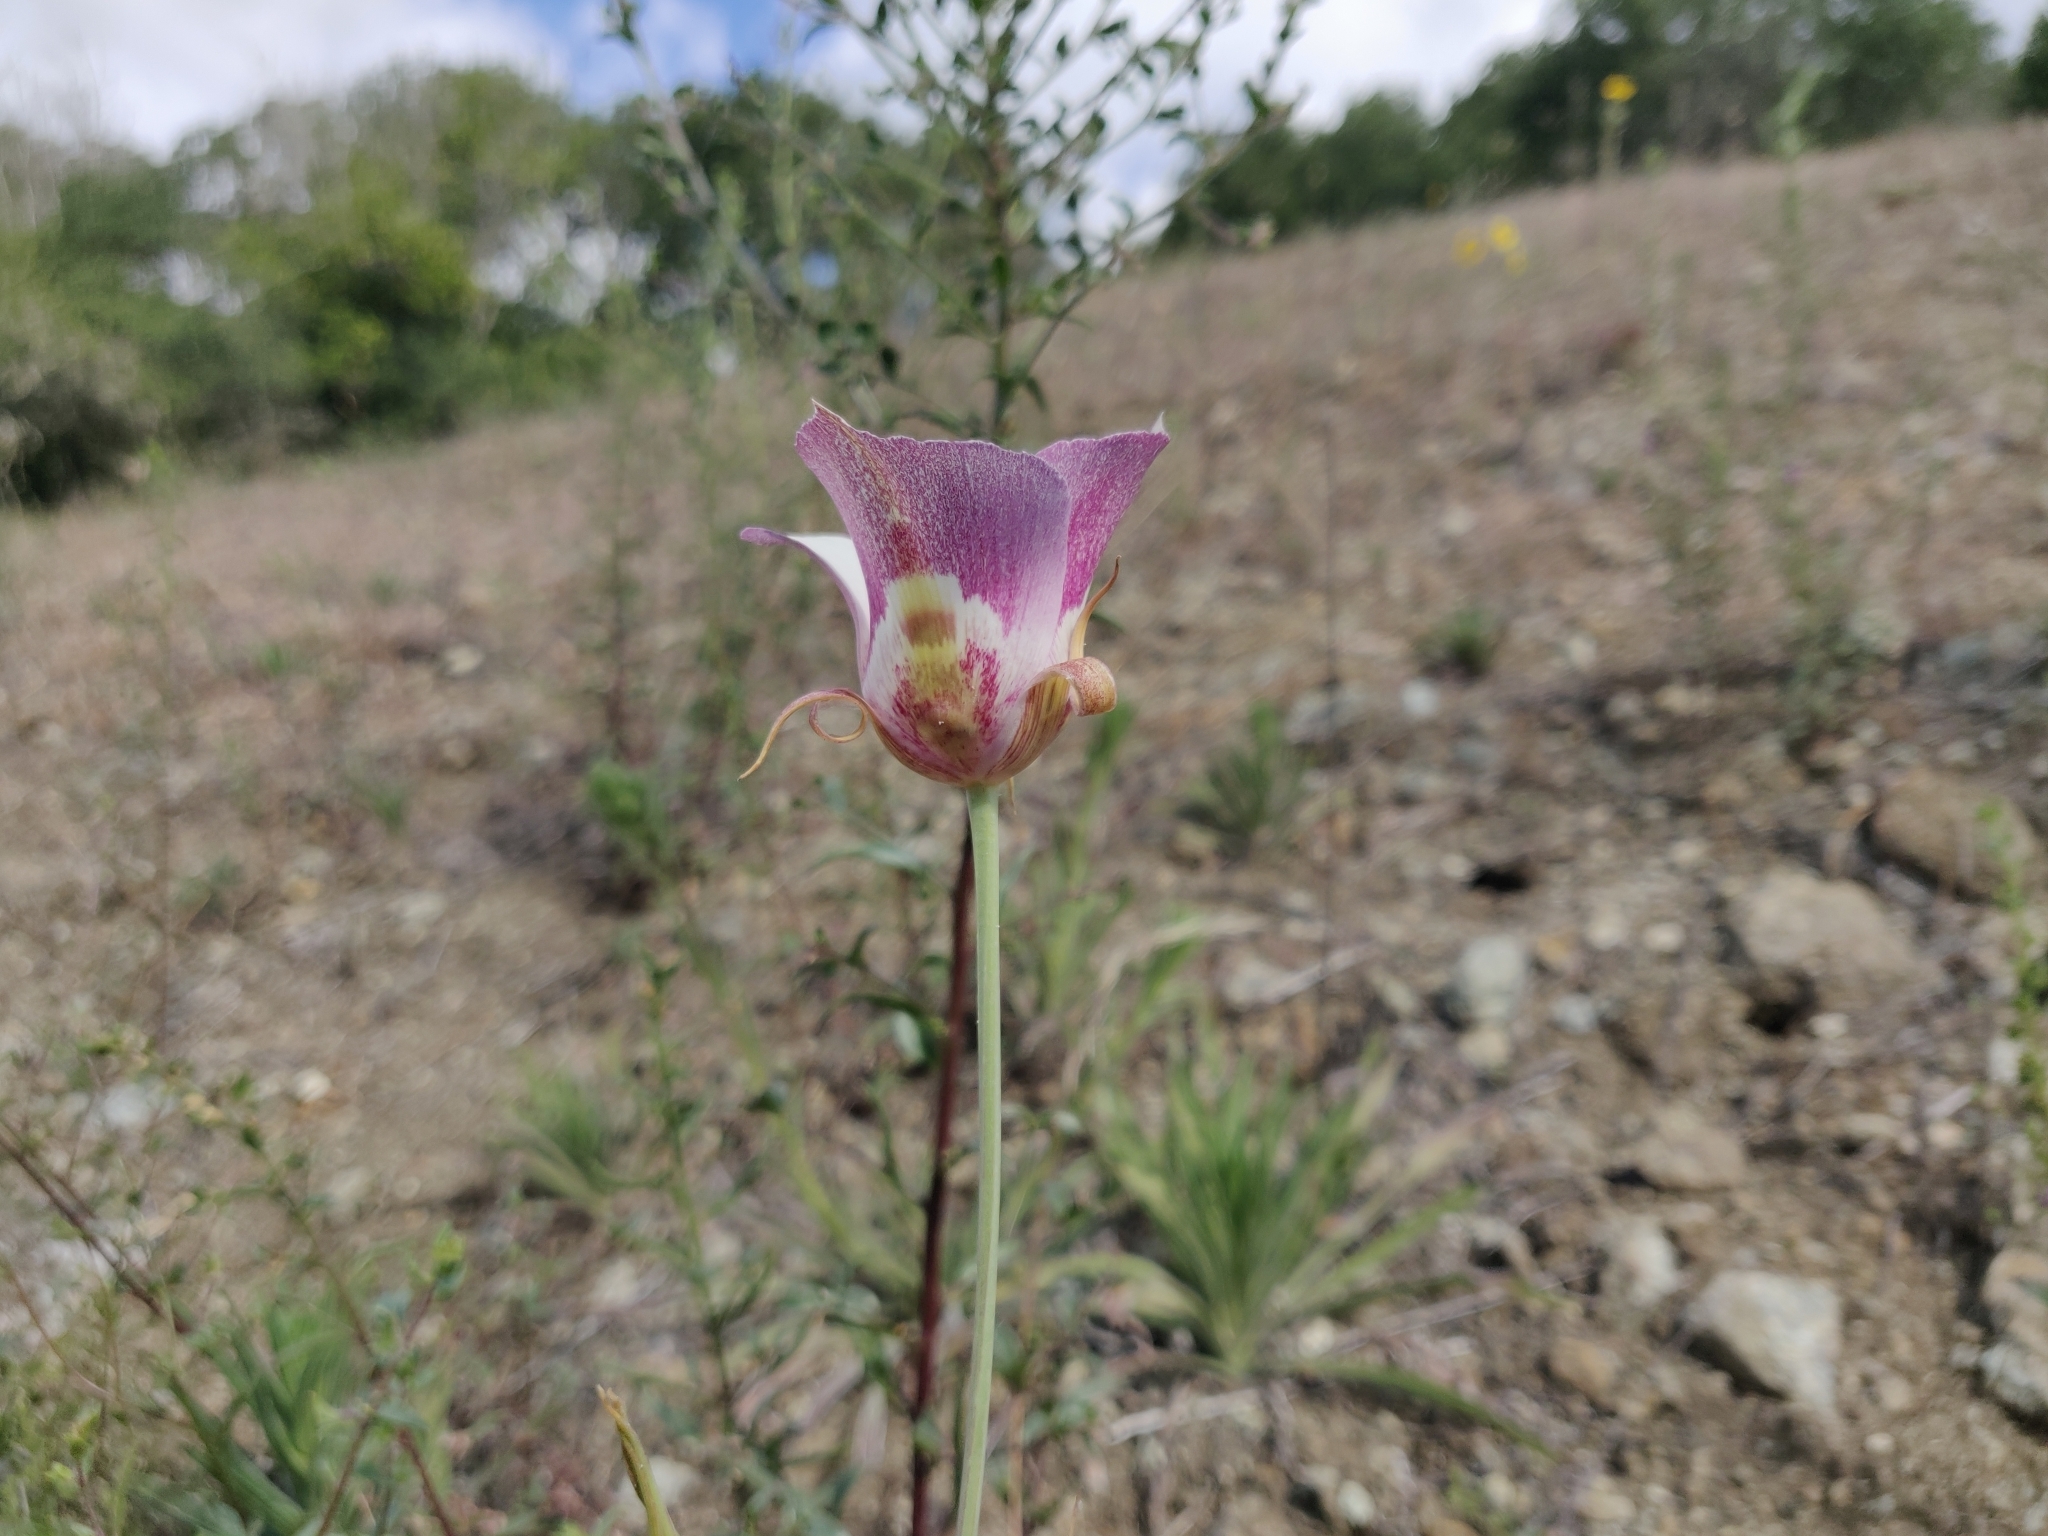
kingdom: Plantae
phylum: Tracheophyta
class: Liliopsida
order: Liliales
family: Liliaceae
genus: Calochortus
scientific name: Calochortus argillosus
